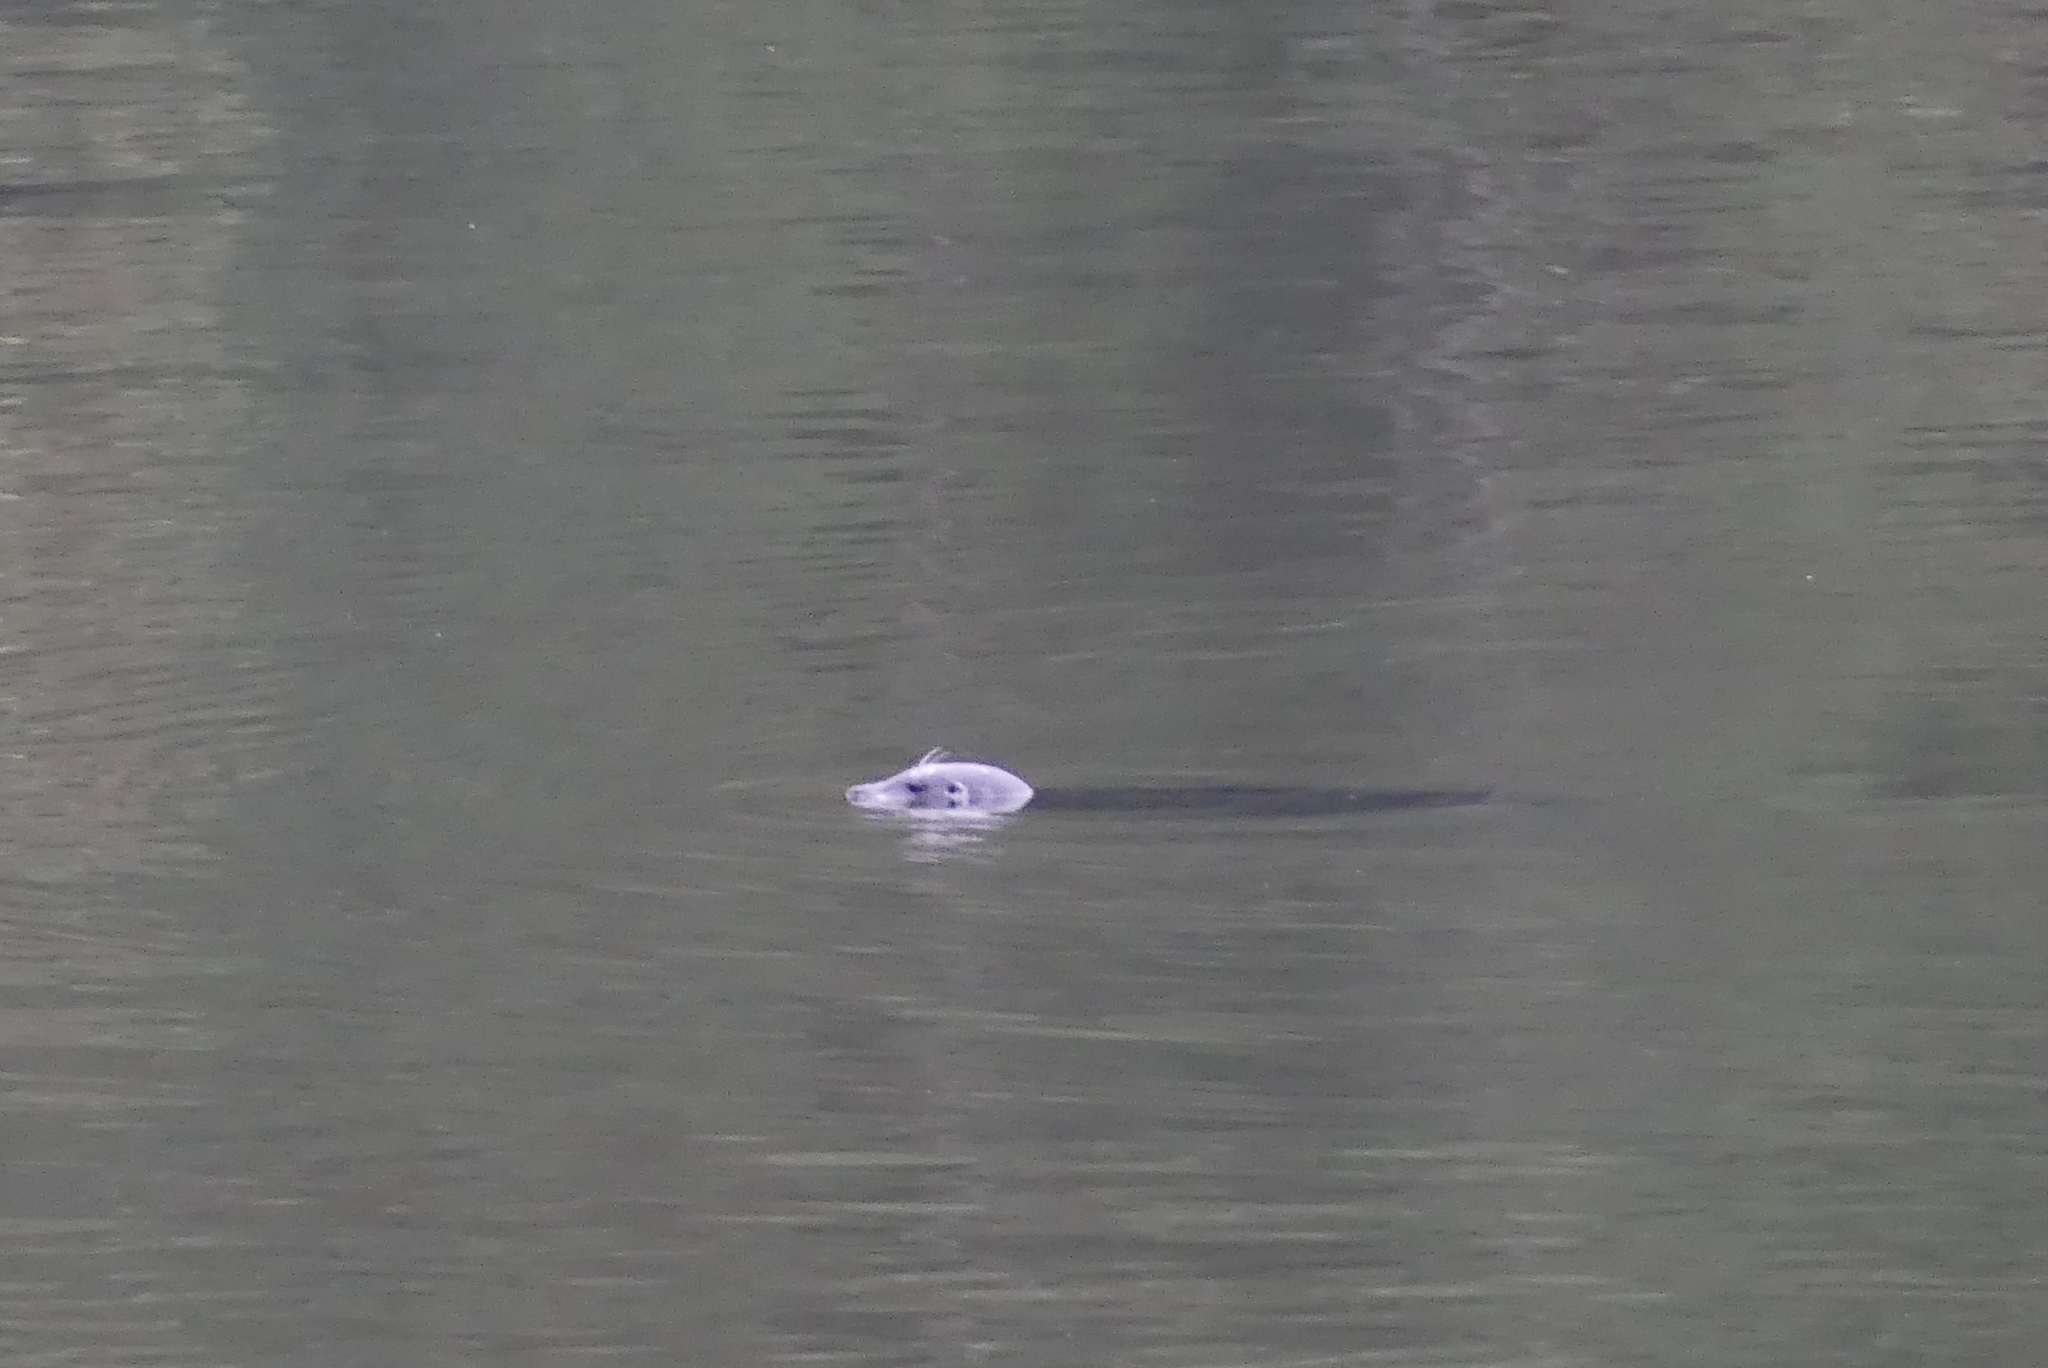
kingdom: Animalia
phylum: Chordata
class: Mammalia
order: Carnivora
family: Phocidae
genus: Phoca
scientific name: Phoca vitulina
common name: Harbor seal
